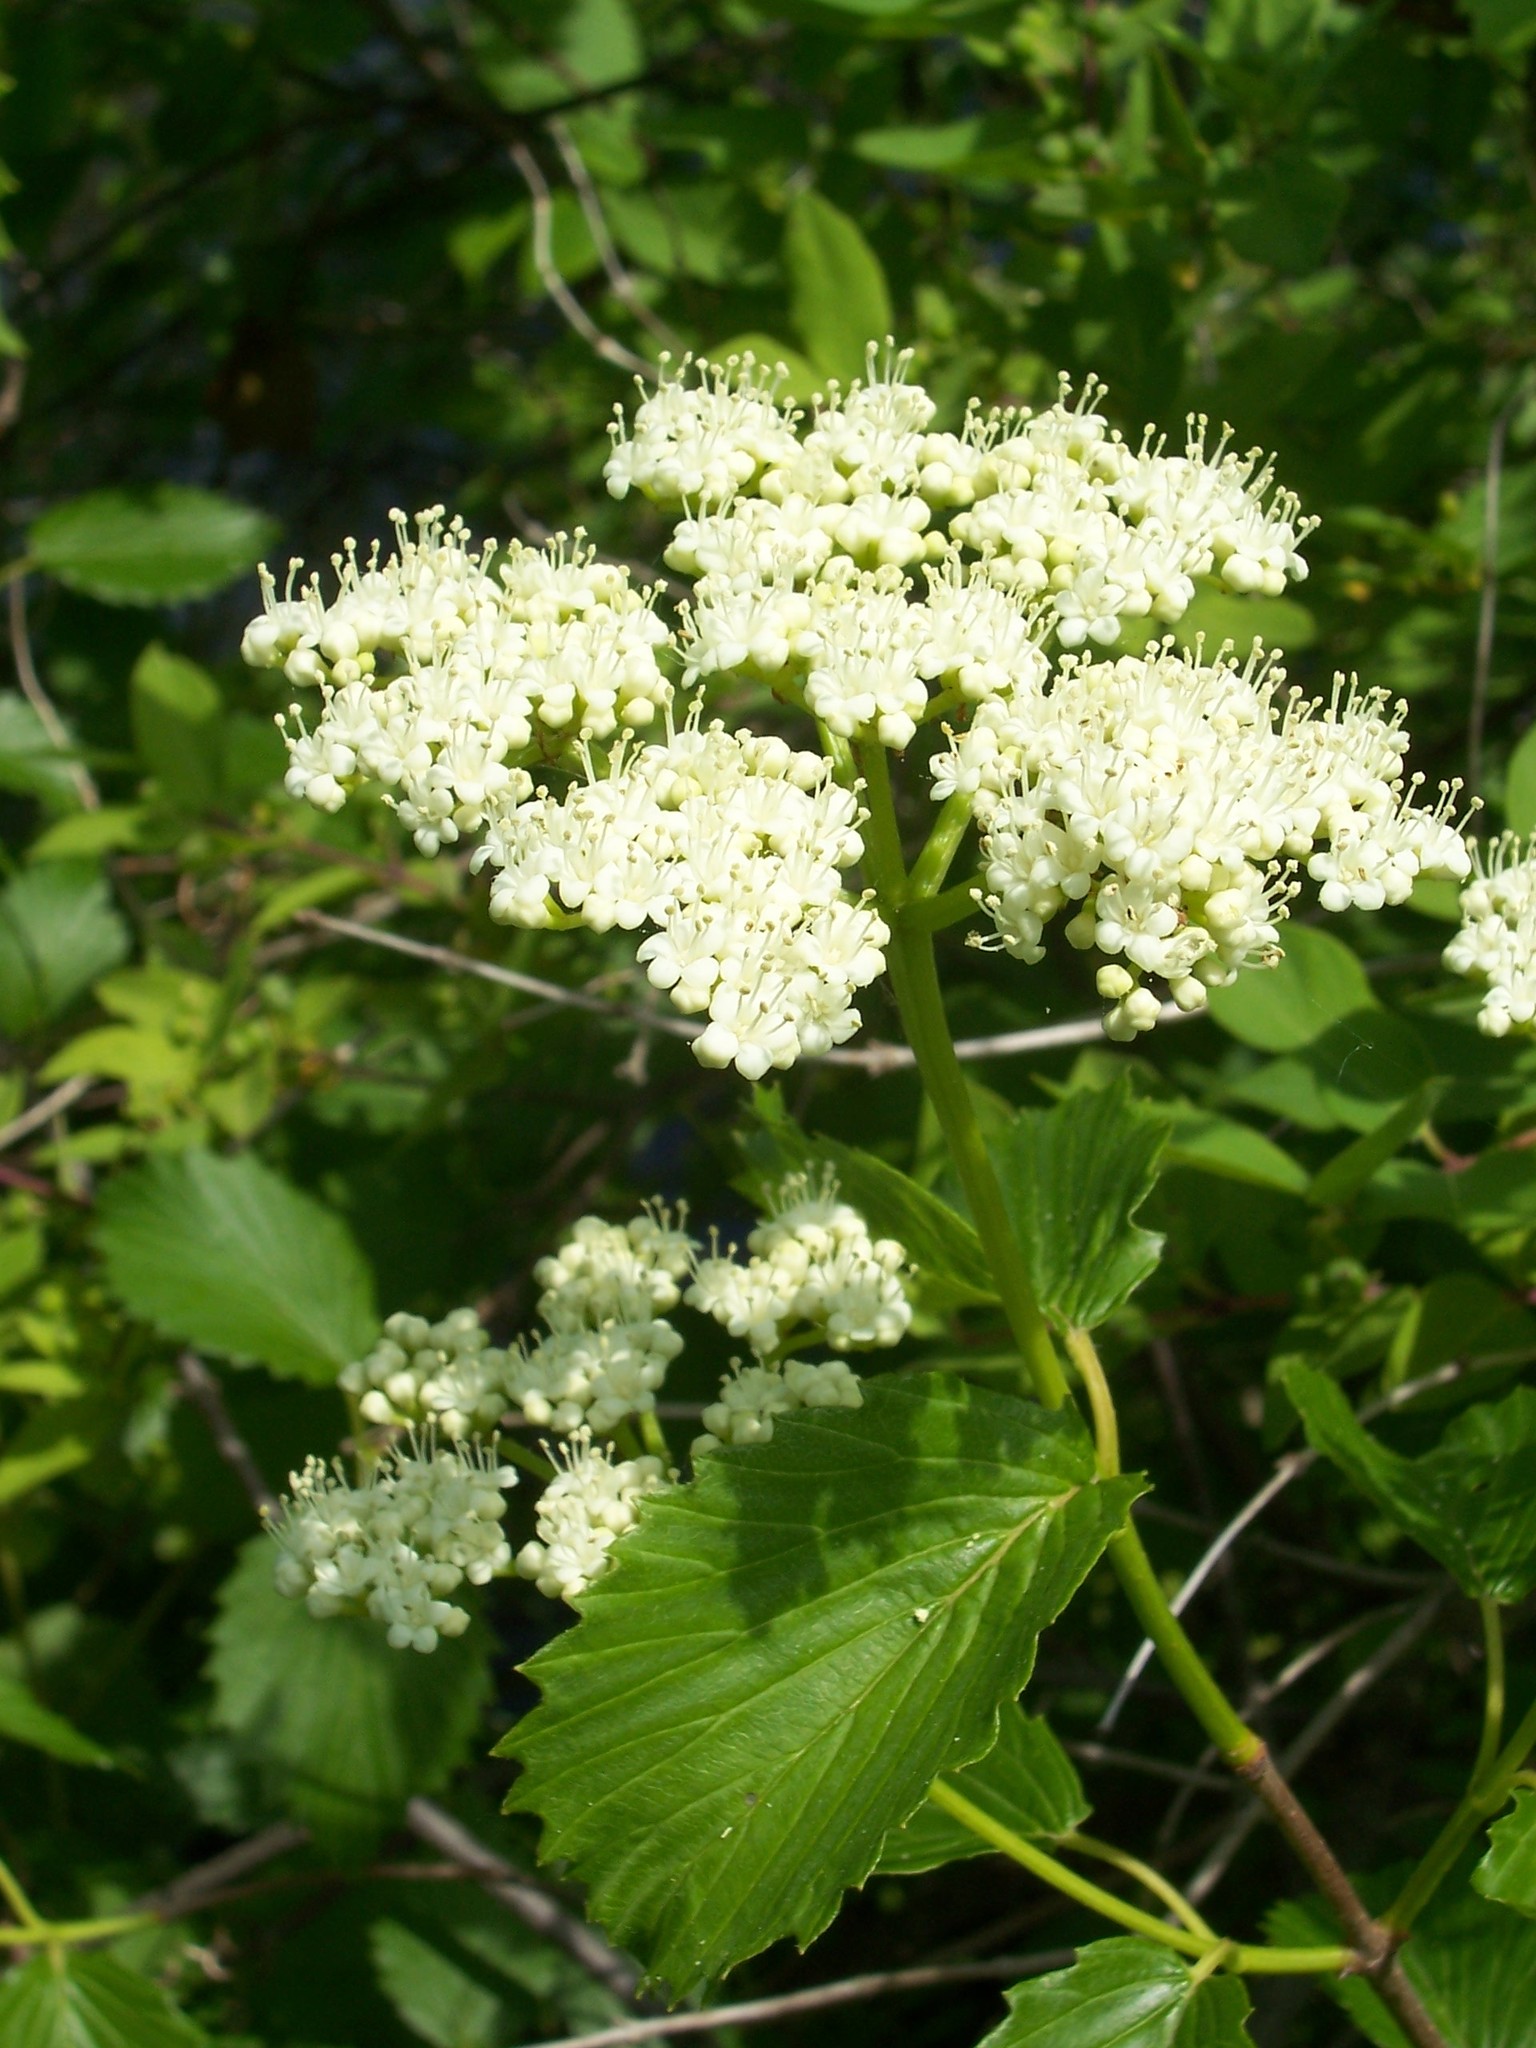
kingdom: Plantae
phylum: Tracheophyta
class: Magnoliopsida
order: Dipsacales
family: Viburnaceae
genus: Viburnum
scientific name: Viburnum dentatum
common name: Arrow-wood
